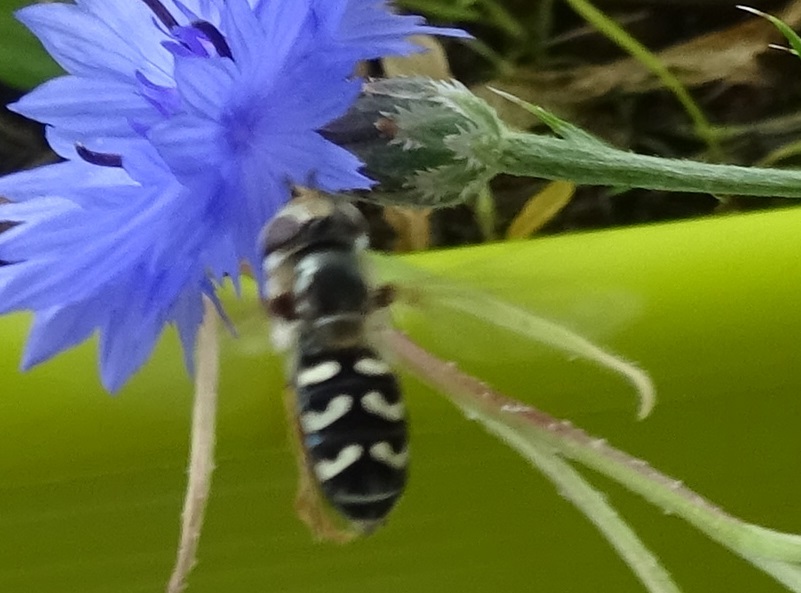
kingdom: Animalia
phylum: Arthropoda
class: Insecta
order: Diptera
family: Syrphidae
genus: Scaeva
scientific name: Scaeva pyrastri
